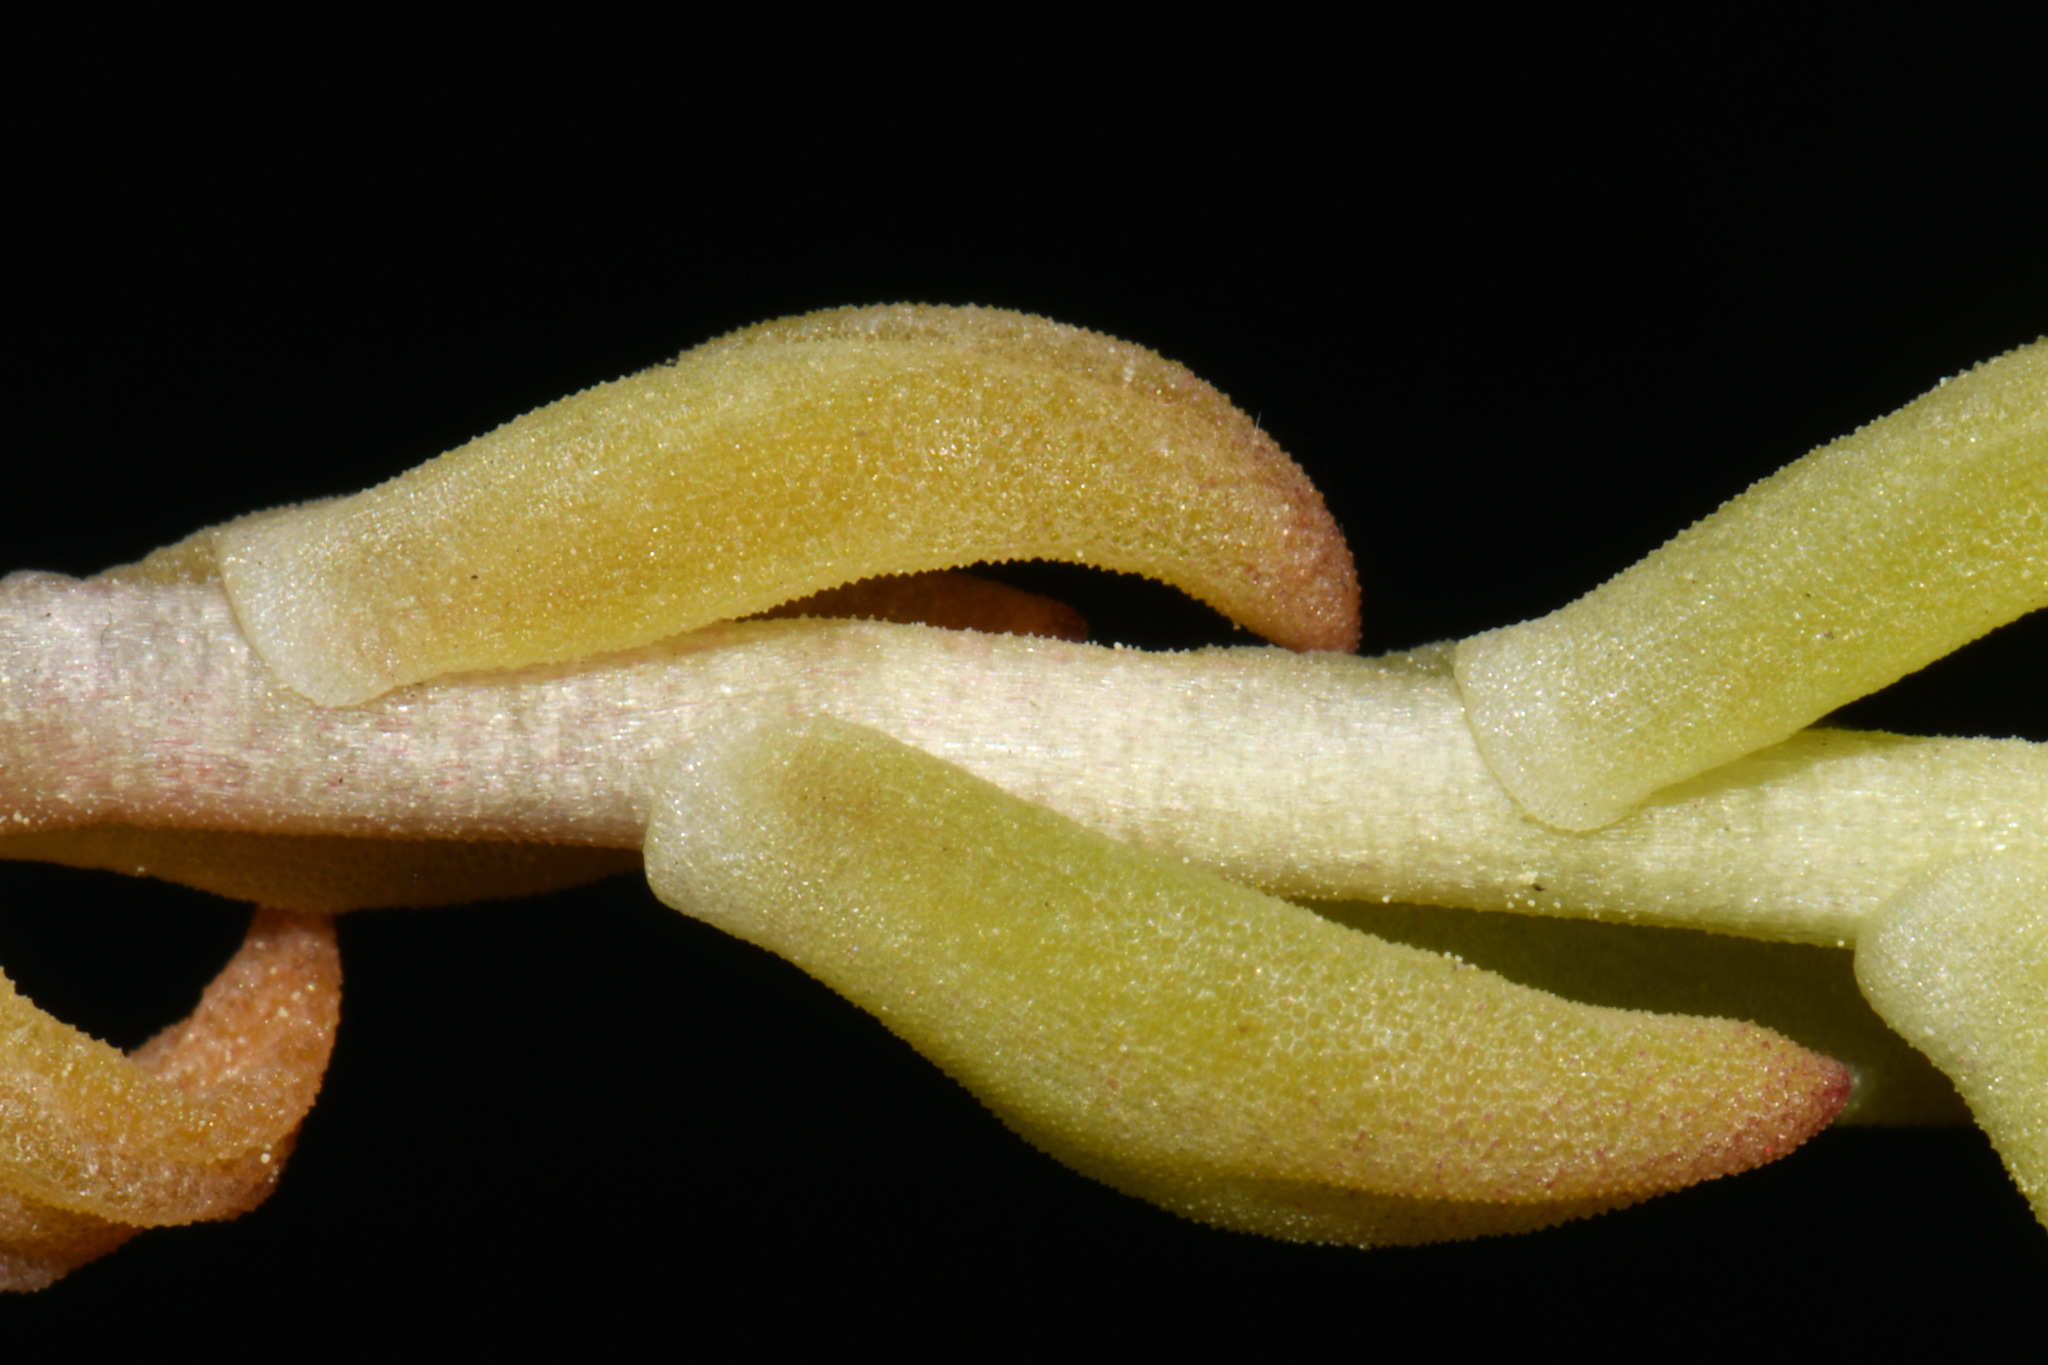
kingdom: Plantae
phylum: Tracheophyta
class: Magnoliopsida
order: Saxifragales
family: Crassulaceae
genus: Sedum
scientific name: Sedum lanceolatum
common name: Common stonecrop
